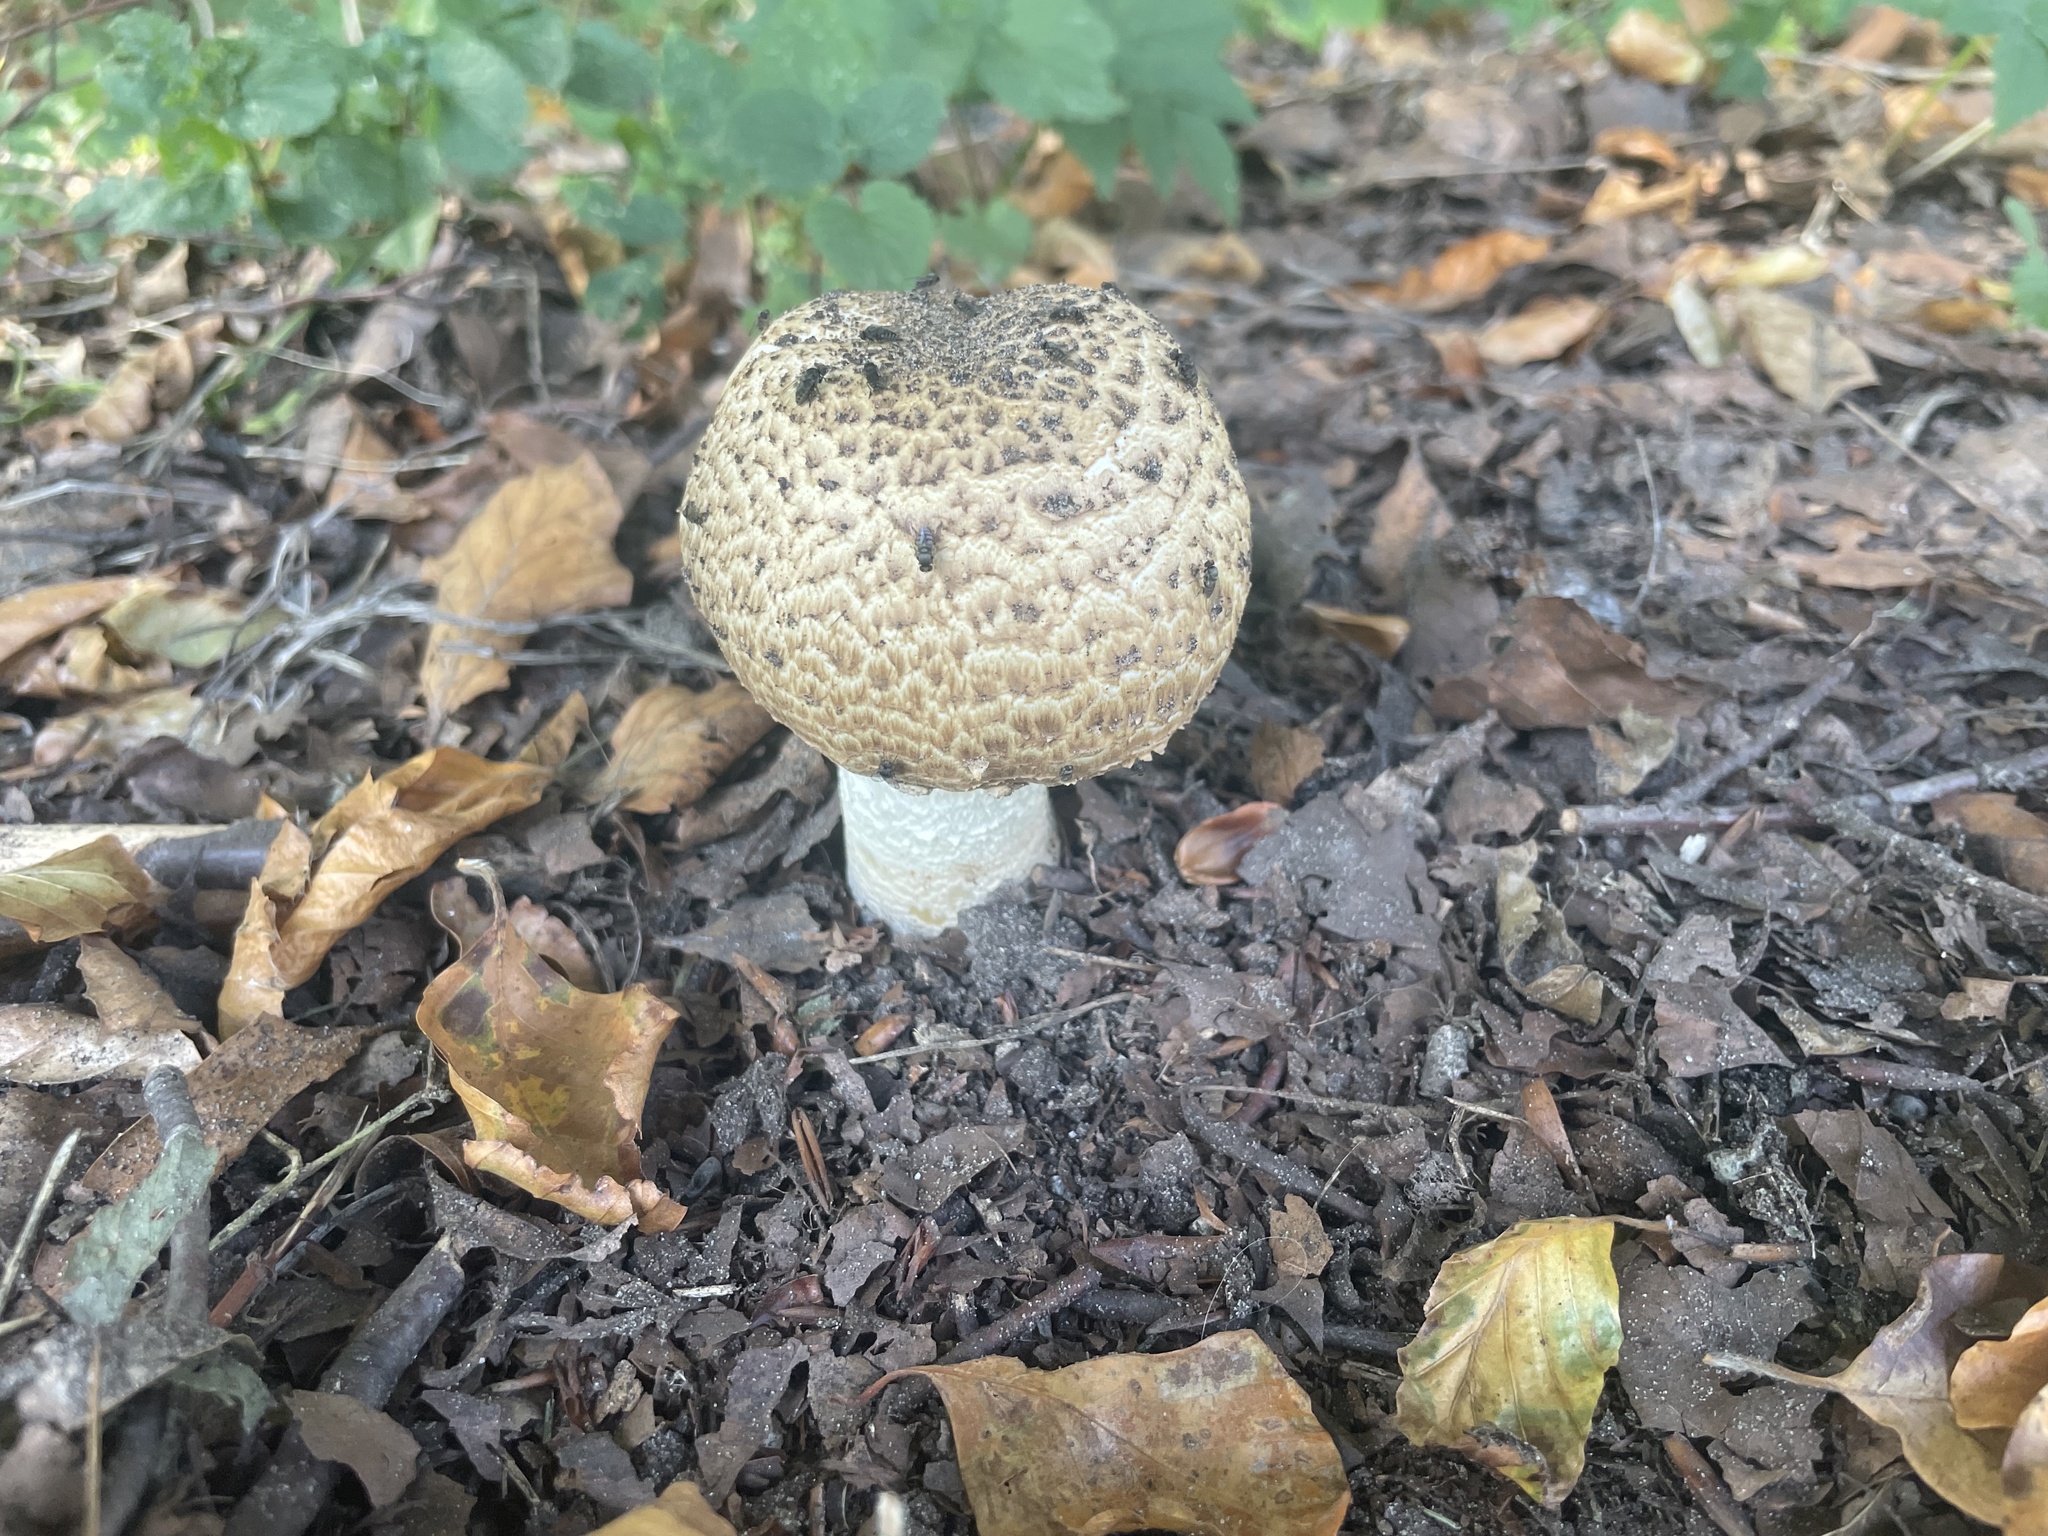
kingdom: Fungi
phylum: Basidiomycota
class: Agaricomycetes
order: Agaricales
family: Agaricaceae
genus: Agaricus
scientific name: Agaricus augustus
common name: Prince
